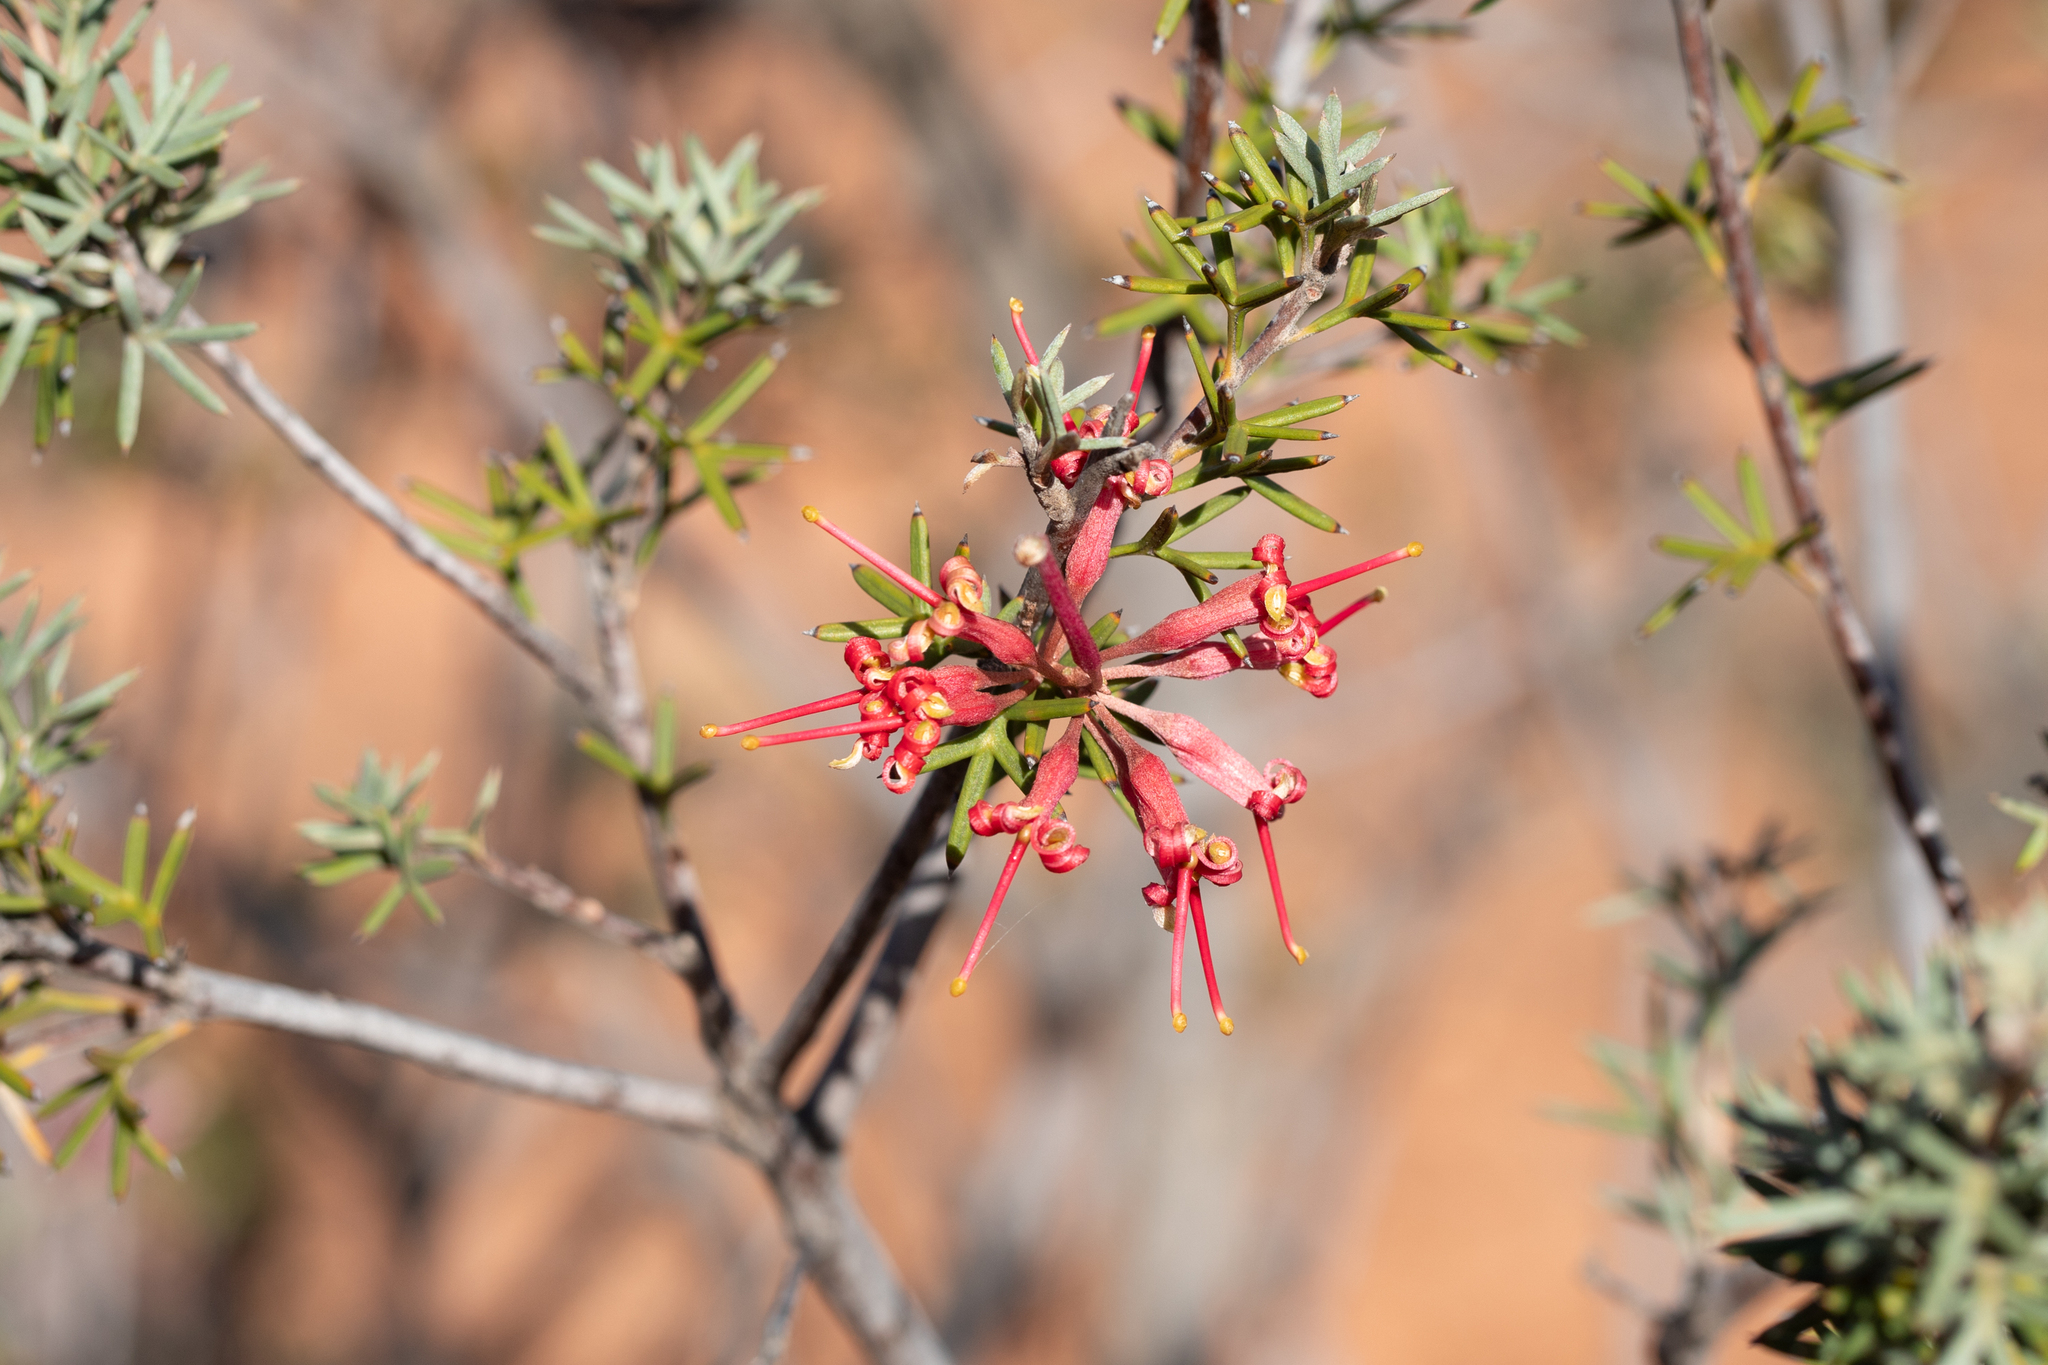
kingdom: Plantae
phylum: Tracheophyta
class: Magnoliopsida
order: Proteales
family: Proteaceae
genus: Grevillea
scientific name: Grevillea huegelii
